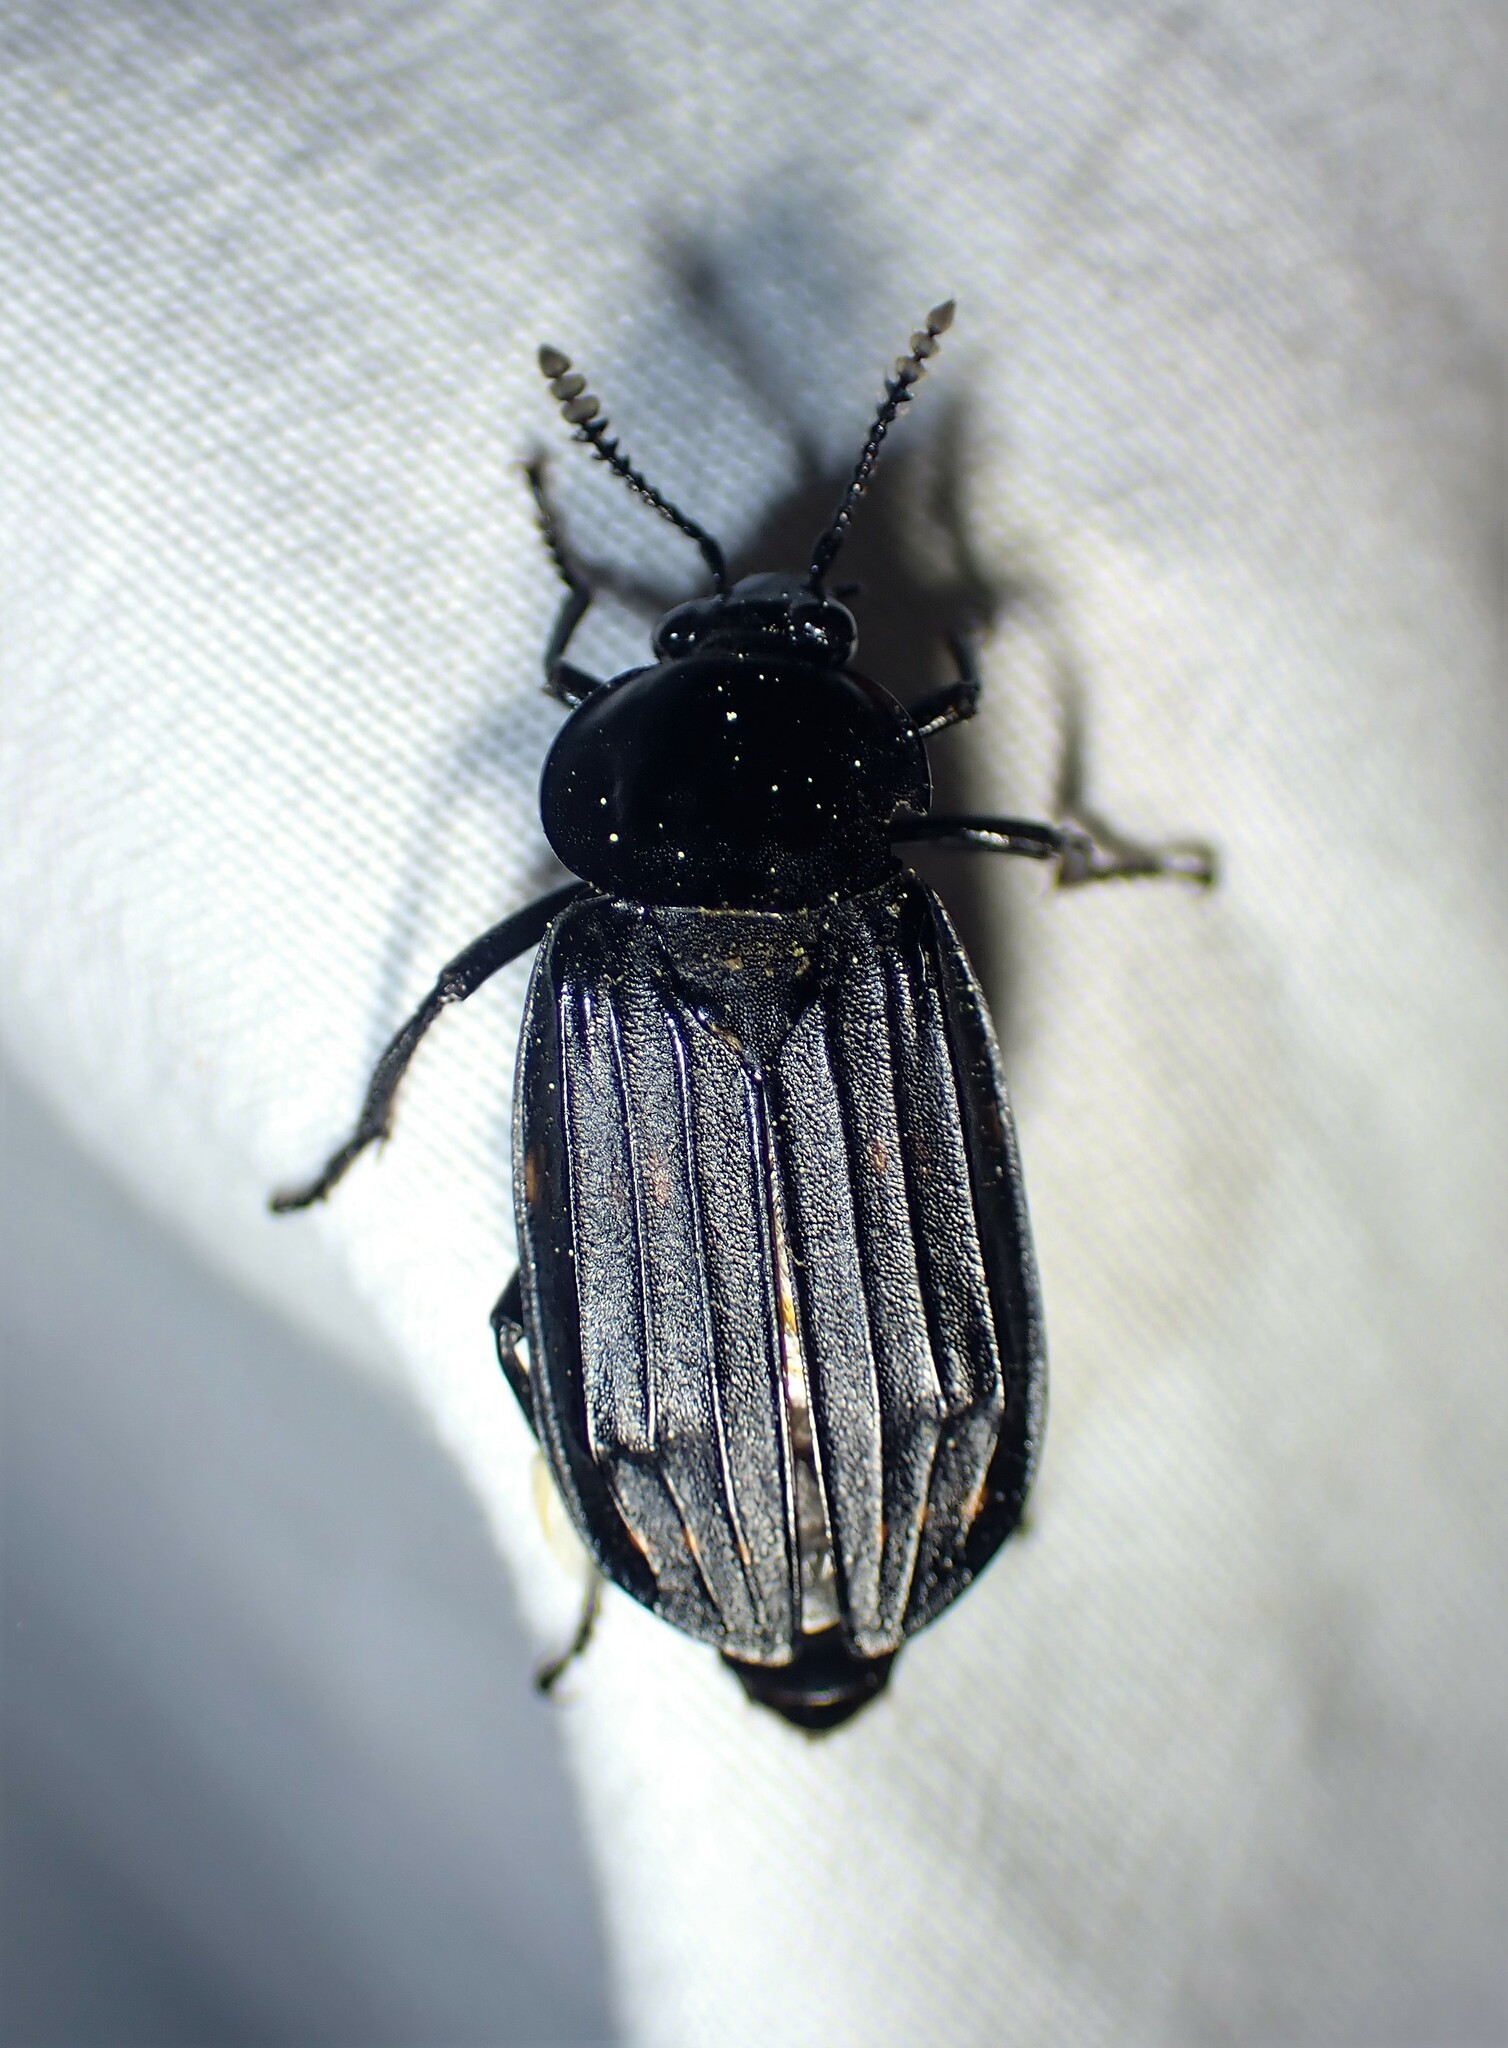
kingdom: Animalia
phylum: Arthropoda
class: Insecta
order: Coleoptera
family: Staphylinidae
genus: Necrodes
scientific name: Necrodes surinamensis
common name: Red-lined carrion beetle
